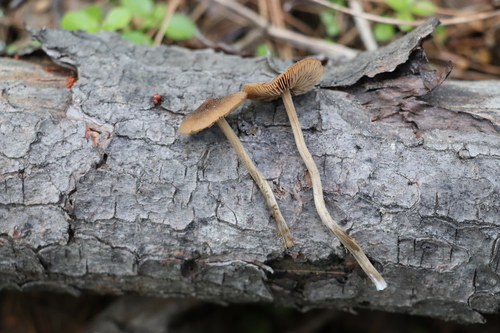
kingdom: Fungi
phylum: Basidiomycota
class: Agaricomycetes
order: Agaricales
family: Hymenogastraceae
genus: Naucoria
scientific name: Naucoria amarescens
